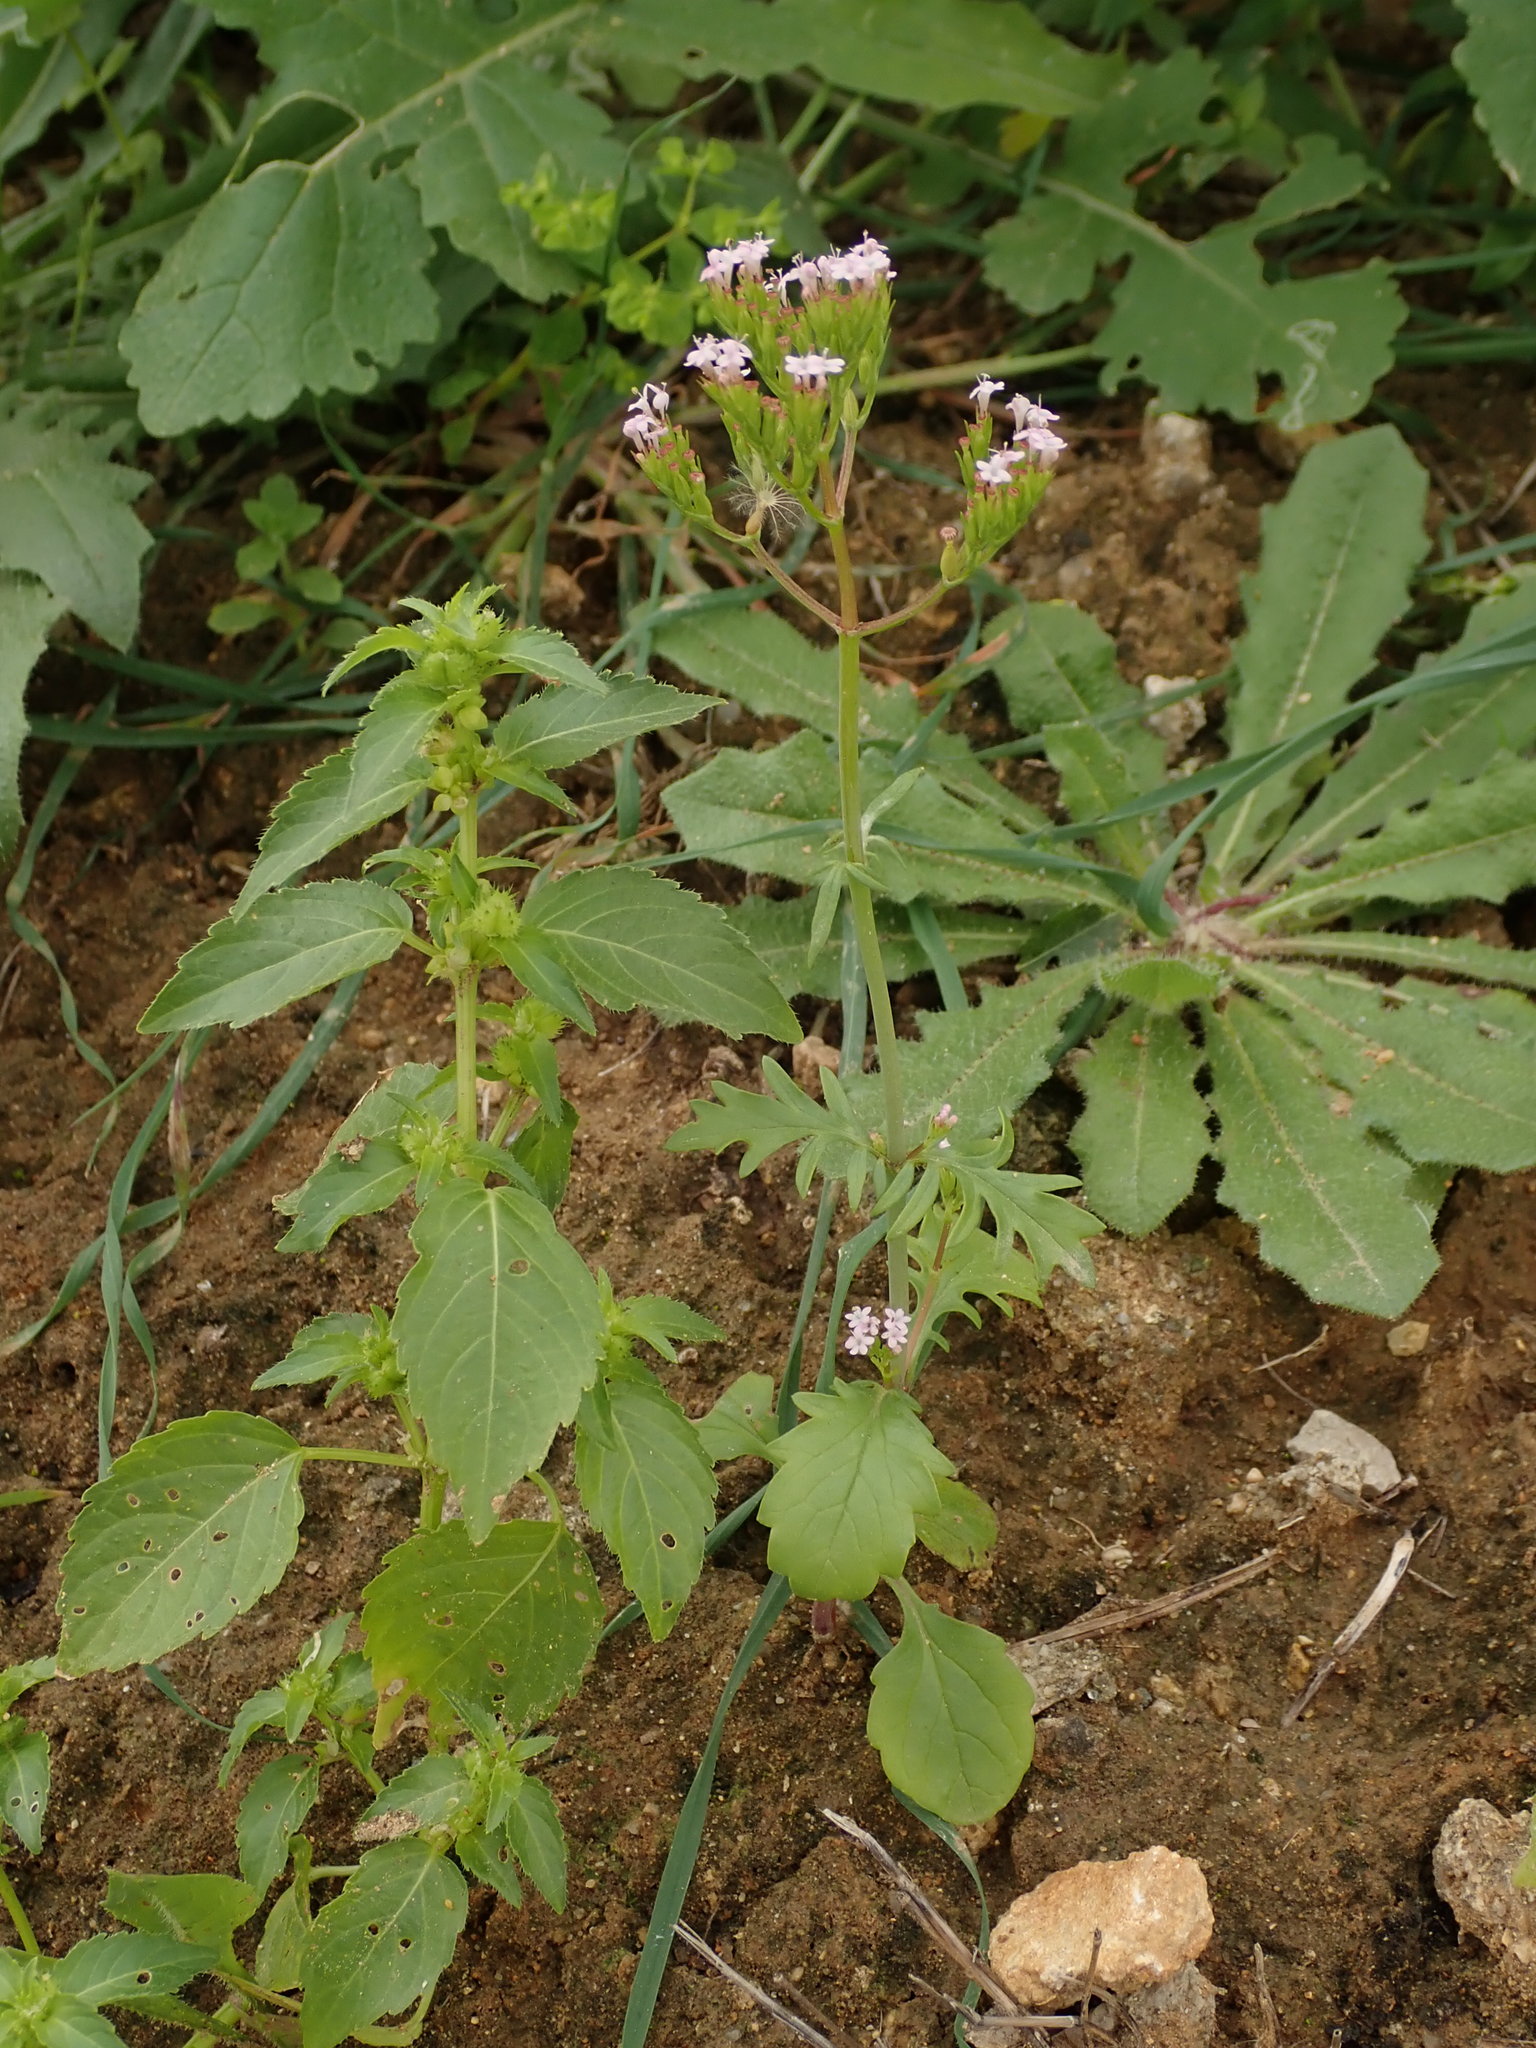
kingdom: Plantae
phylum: Tracheophyta
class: Magnoliopsida
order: Dipsacales
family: Caprifoliaceae
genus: Centranthus
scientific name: Centranthus calcitrapae
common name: Annual valerian
